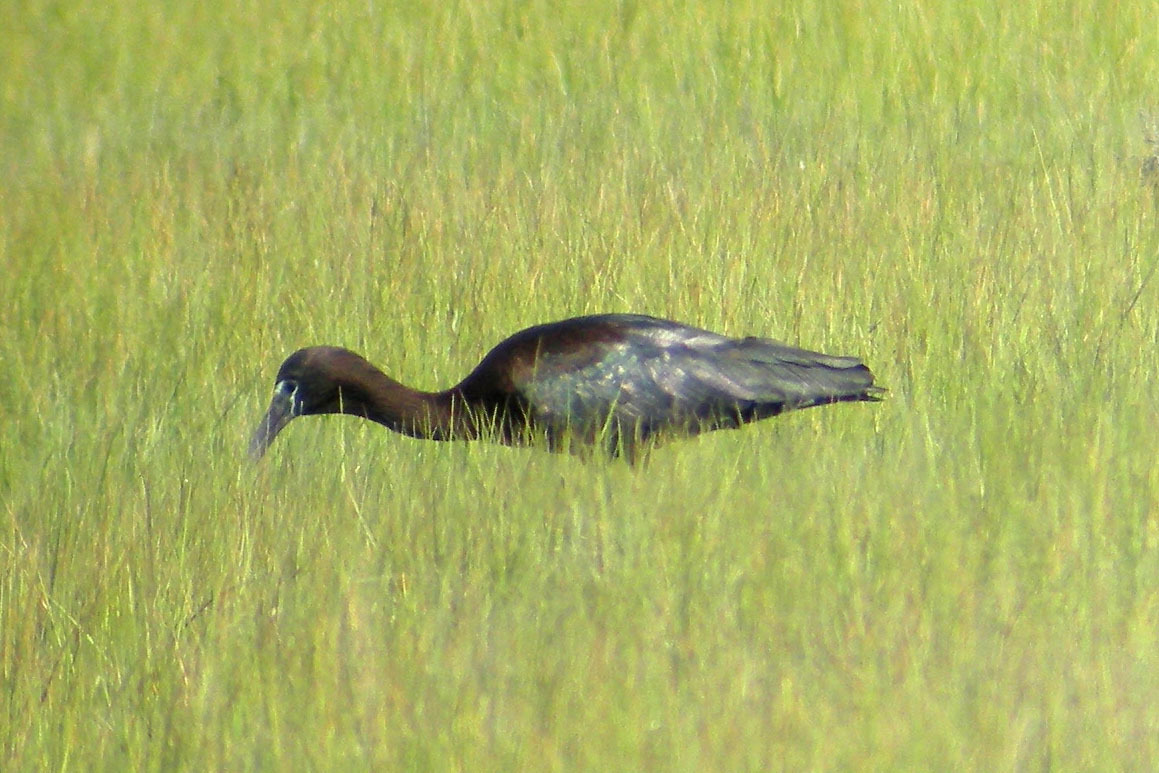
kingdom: Animalia
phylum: Chordata
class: Aves
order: Pelecaniformes
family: Threskiornithidae
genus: Plegadis
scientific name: Plegadis falcinellus
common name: Glossy ibis
